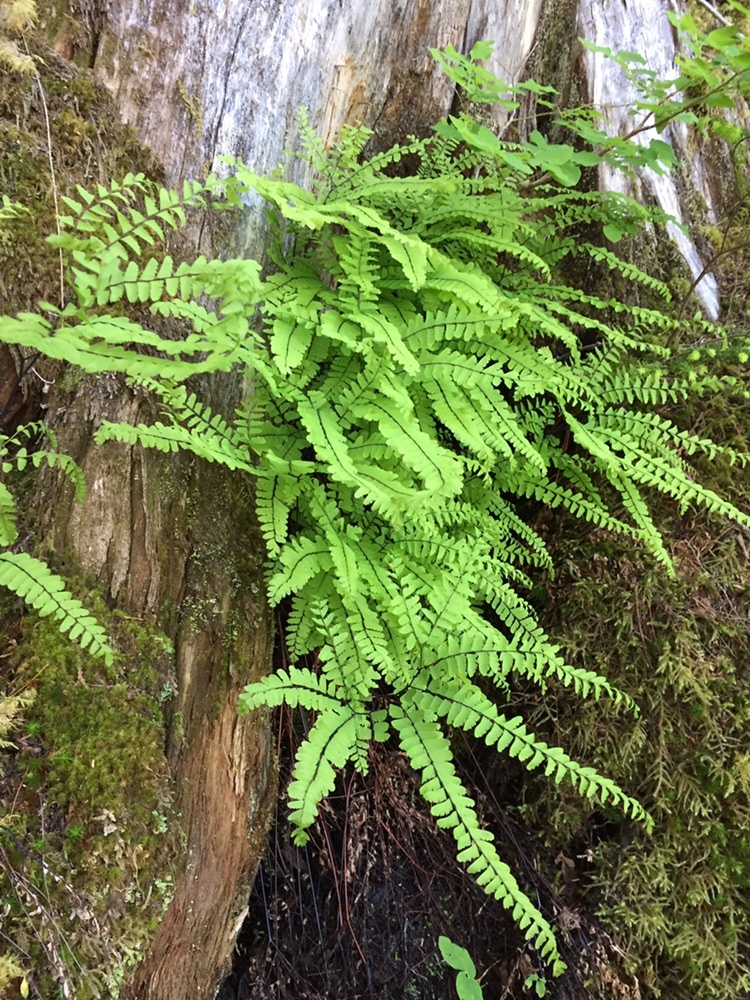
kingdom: Plantae
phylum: Tracheophyta
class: Polypodiopsida
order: Polypodiales
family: Pteridaceae
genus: Adiantum
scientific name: Adiantum aleuticum
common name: Aleutian maidenhair fern
